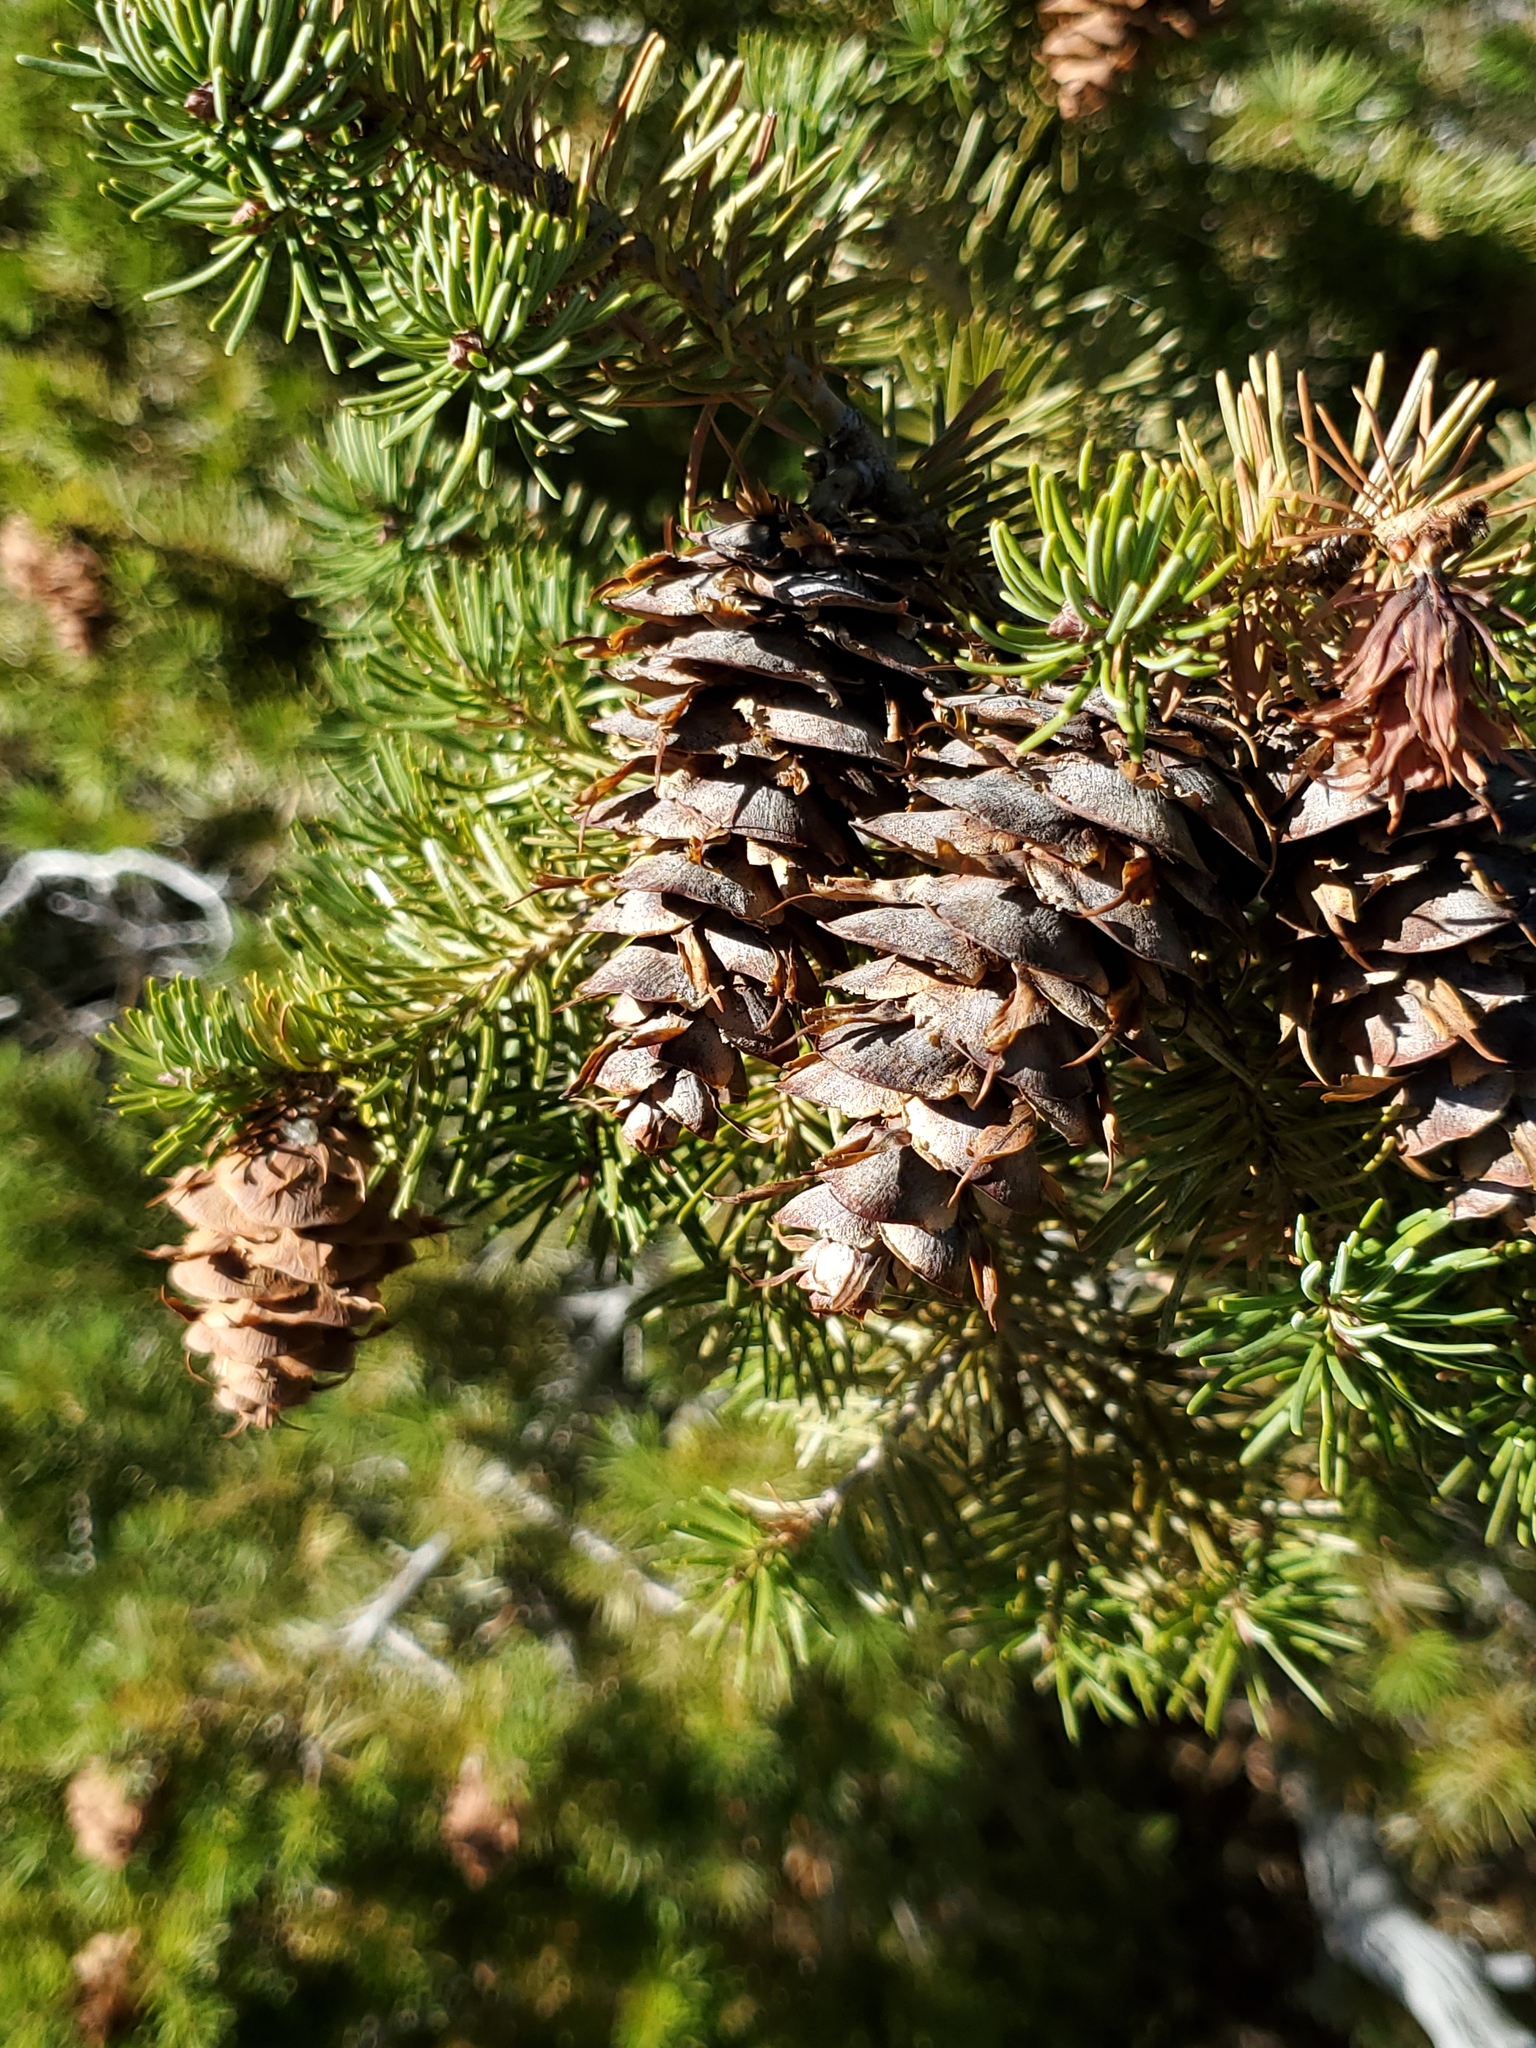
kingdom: Plantae
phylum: Tracheophyta
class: Pinopsida
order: Pinales
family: Pinaceae
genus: Pseudotsuga
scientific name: Pseudotsuga menziesii
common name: Douglas fir
